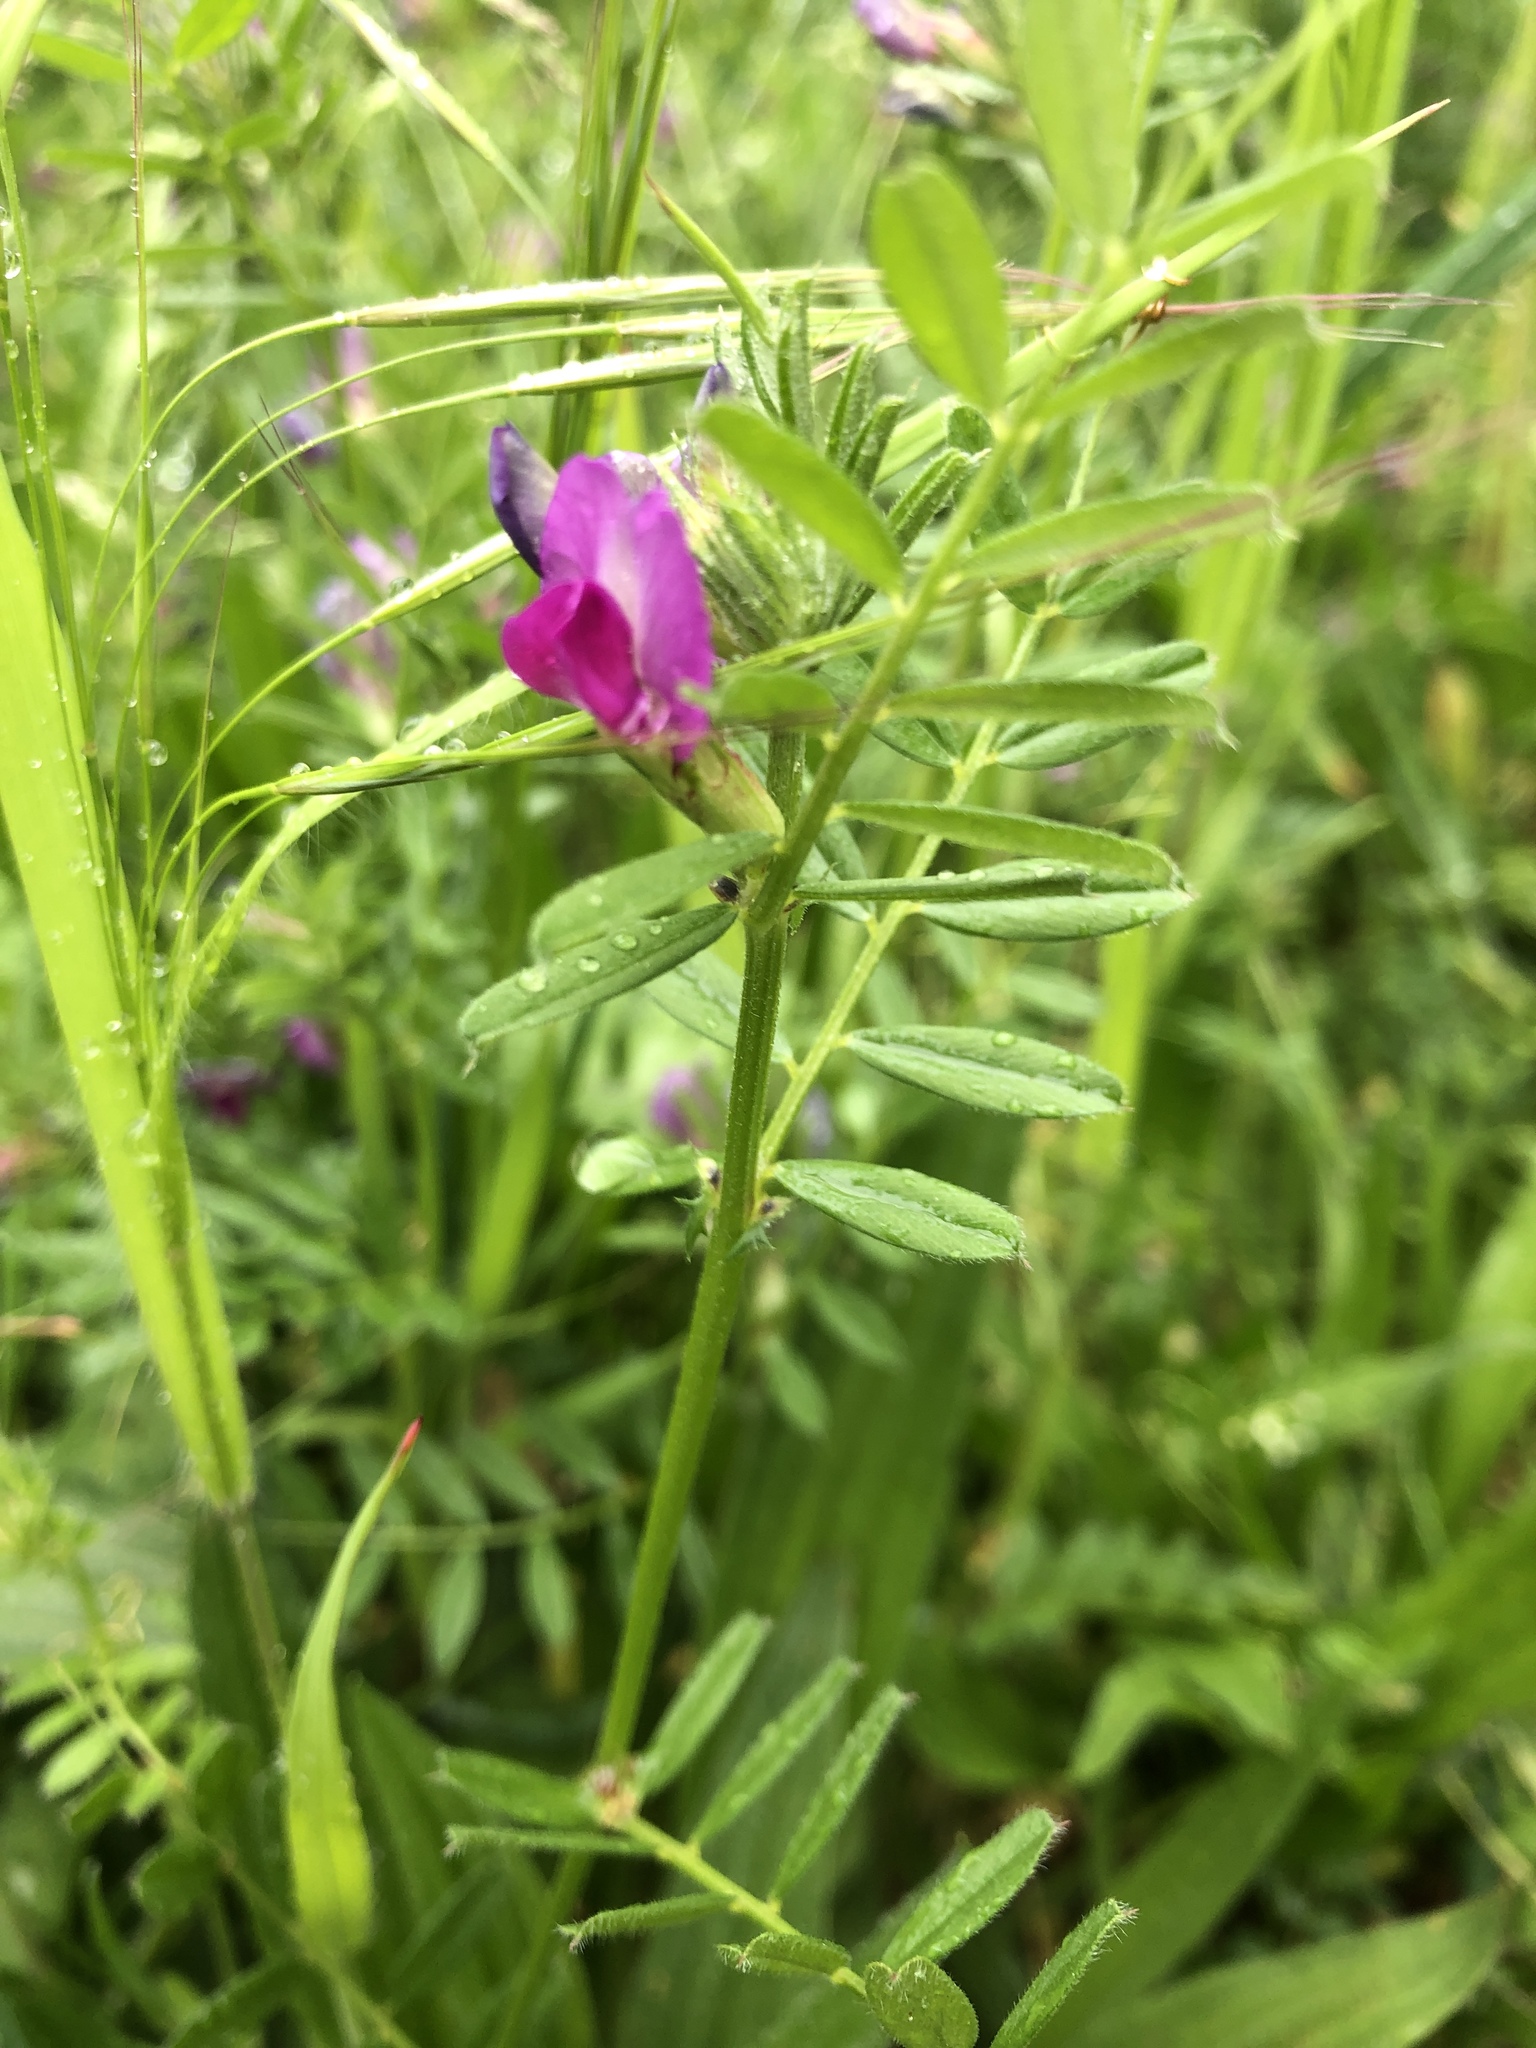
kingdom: Plantae
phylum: Tracheophyta
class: Magnoliopsida
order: Fabales
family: Fabaceae
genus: Vicia
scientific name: Vicia sativa
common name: Garden vetch
